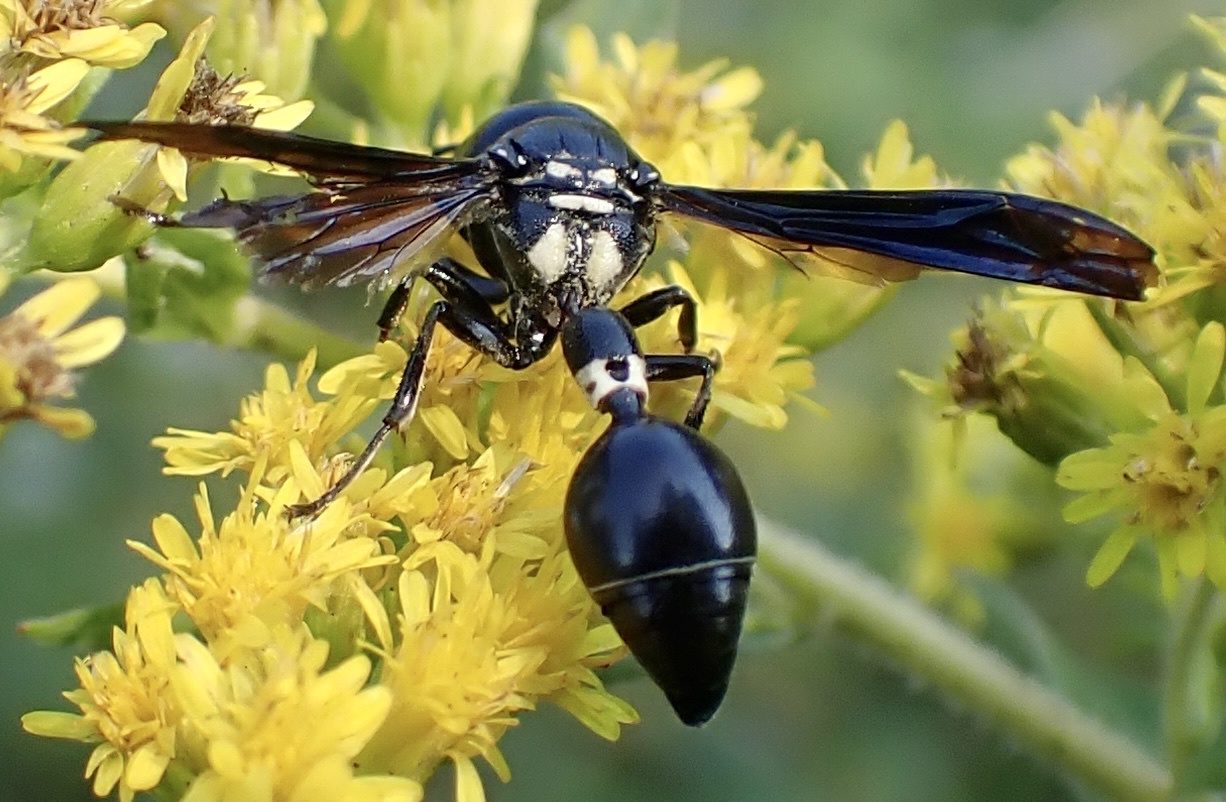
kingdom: Animalia
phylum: Arthropoda
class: Insecta
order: Hymenoptera
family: Eumenidae
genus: Zethus
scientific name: Zethus spinipes
